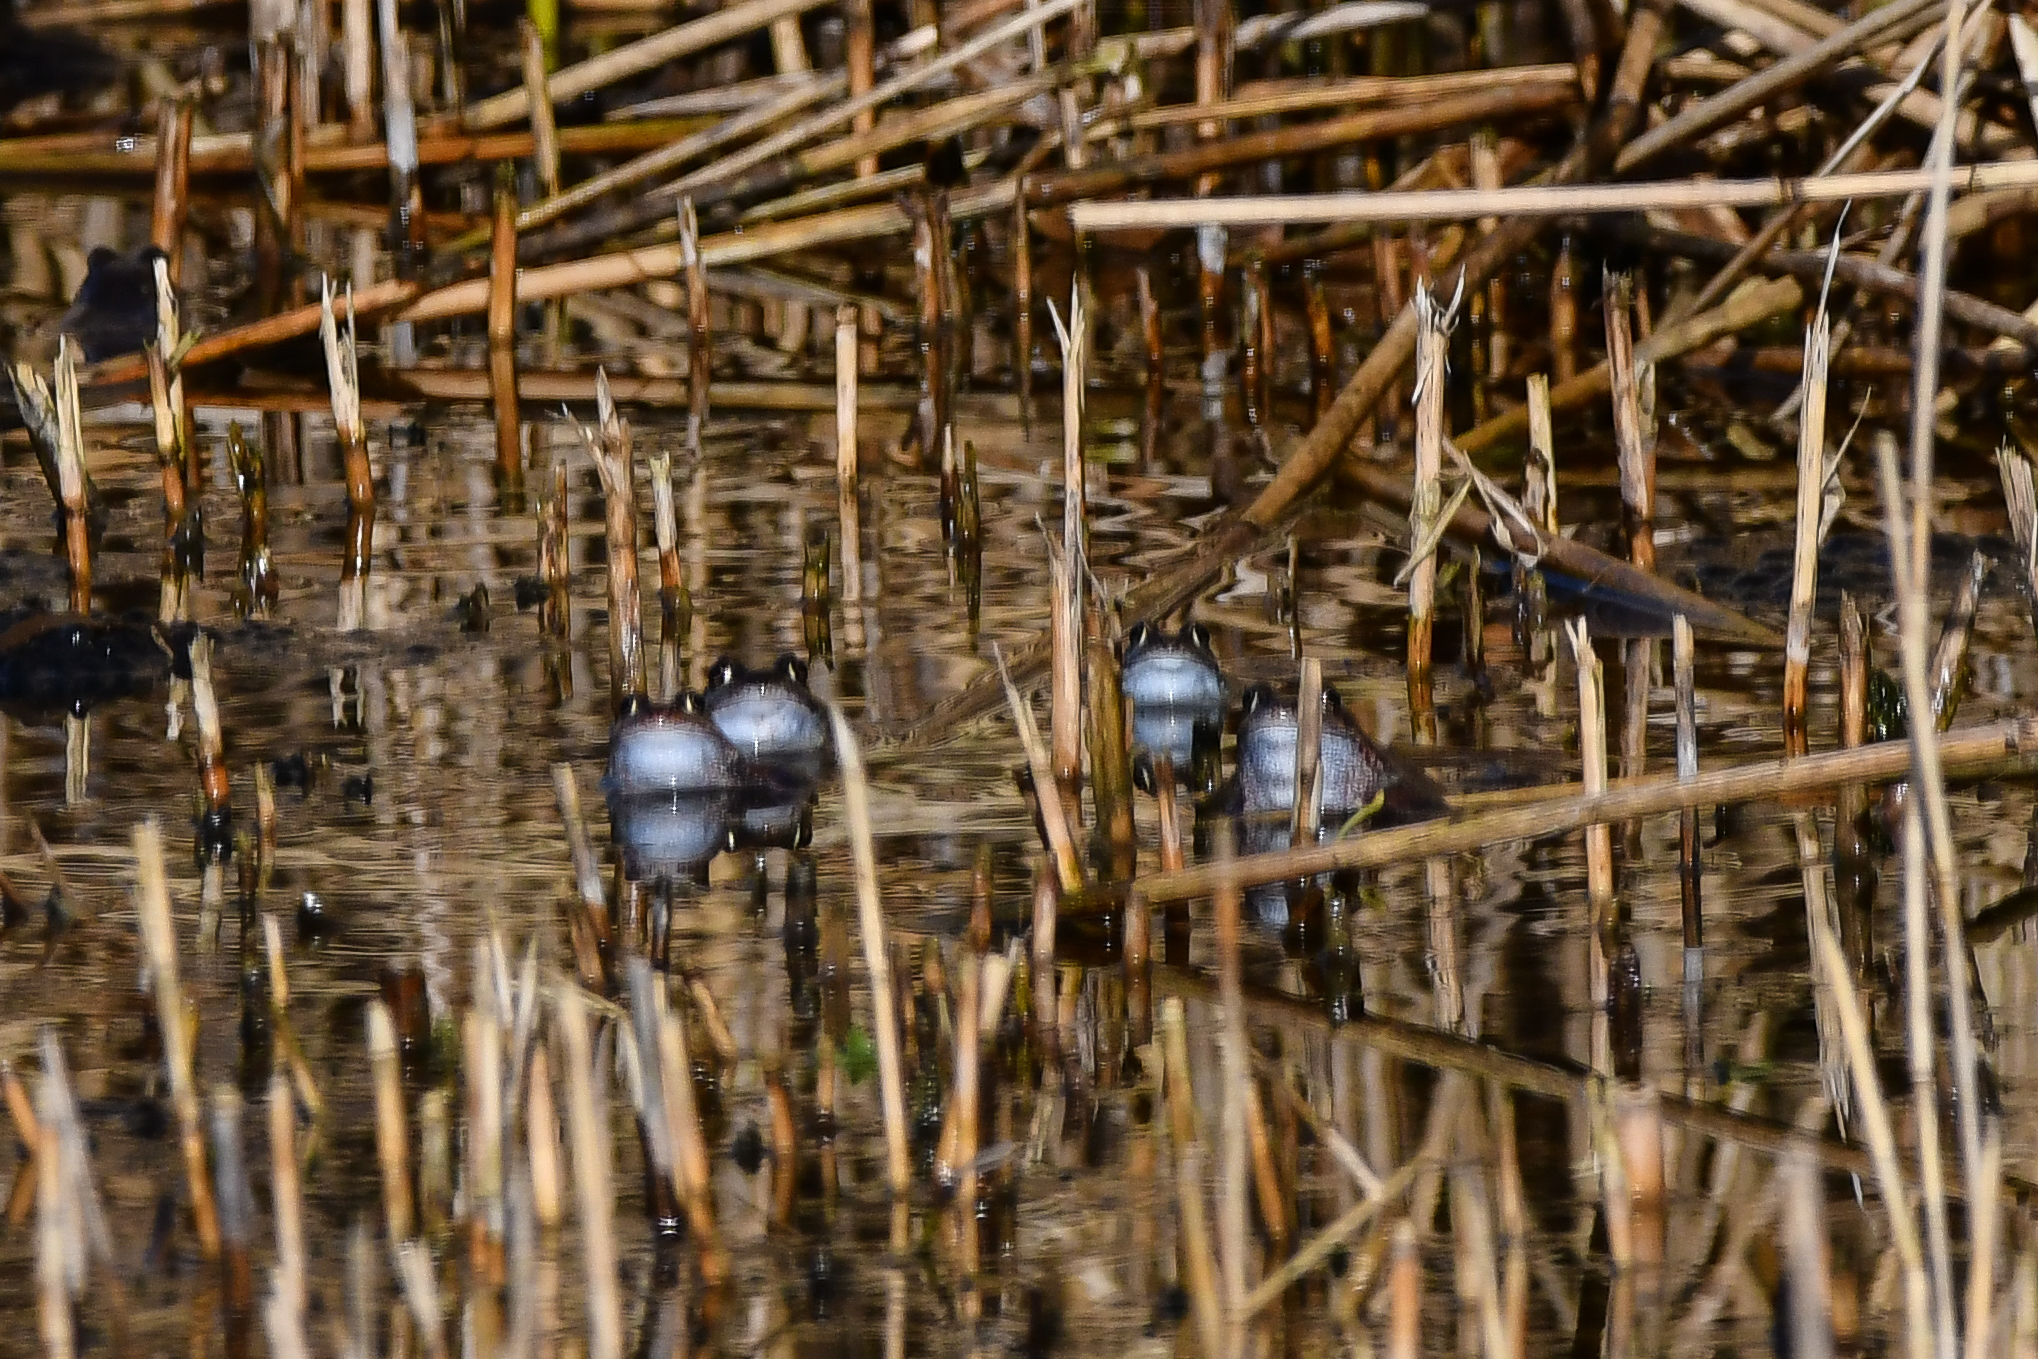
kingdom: Animalia
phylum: Chordata
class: Amphibia
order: Anura
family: Ranidae
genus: Rana
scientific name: Rana temporaria
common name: Common frog
